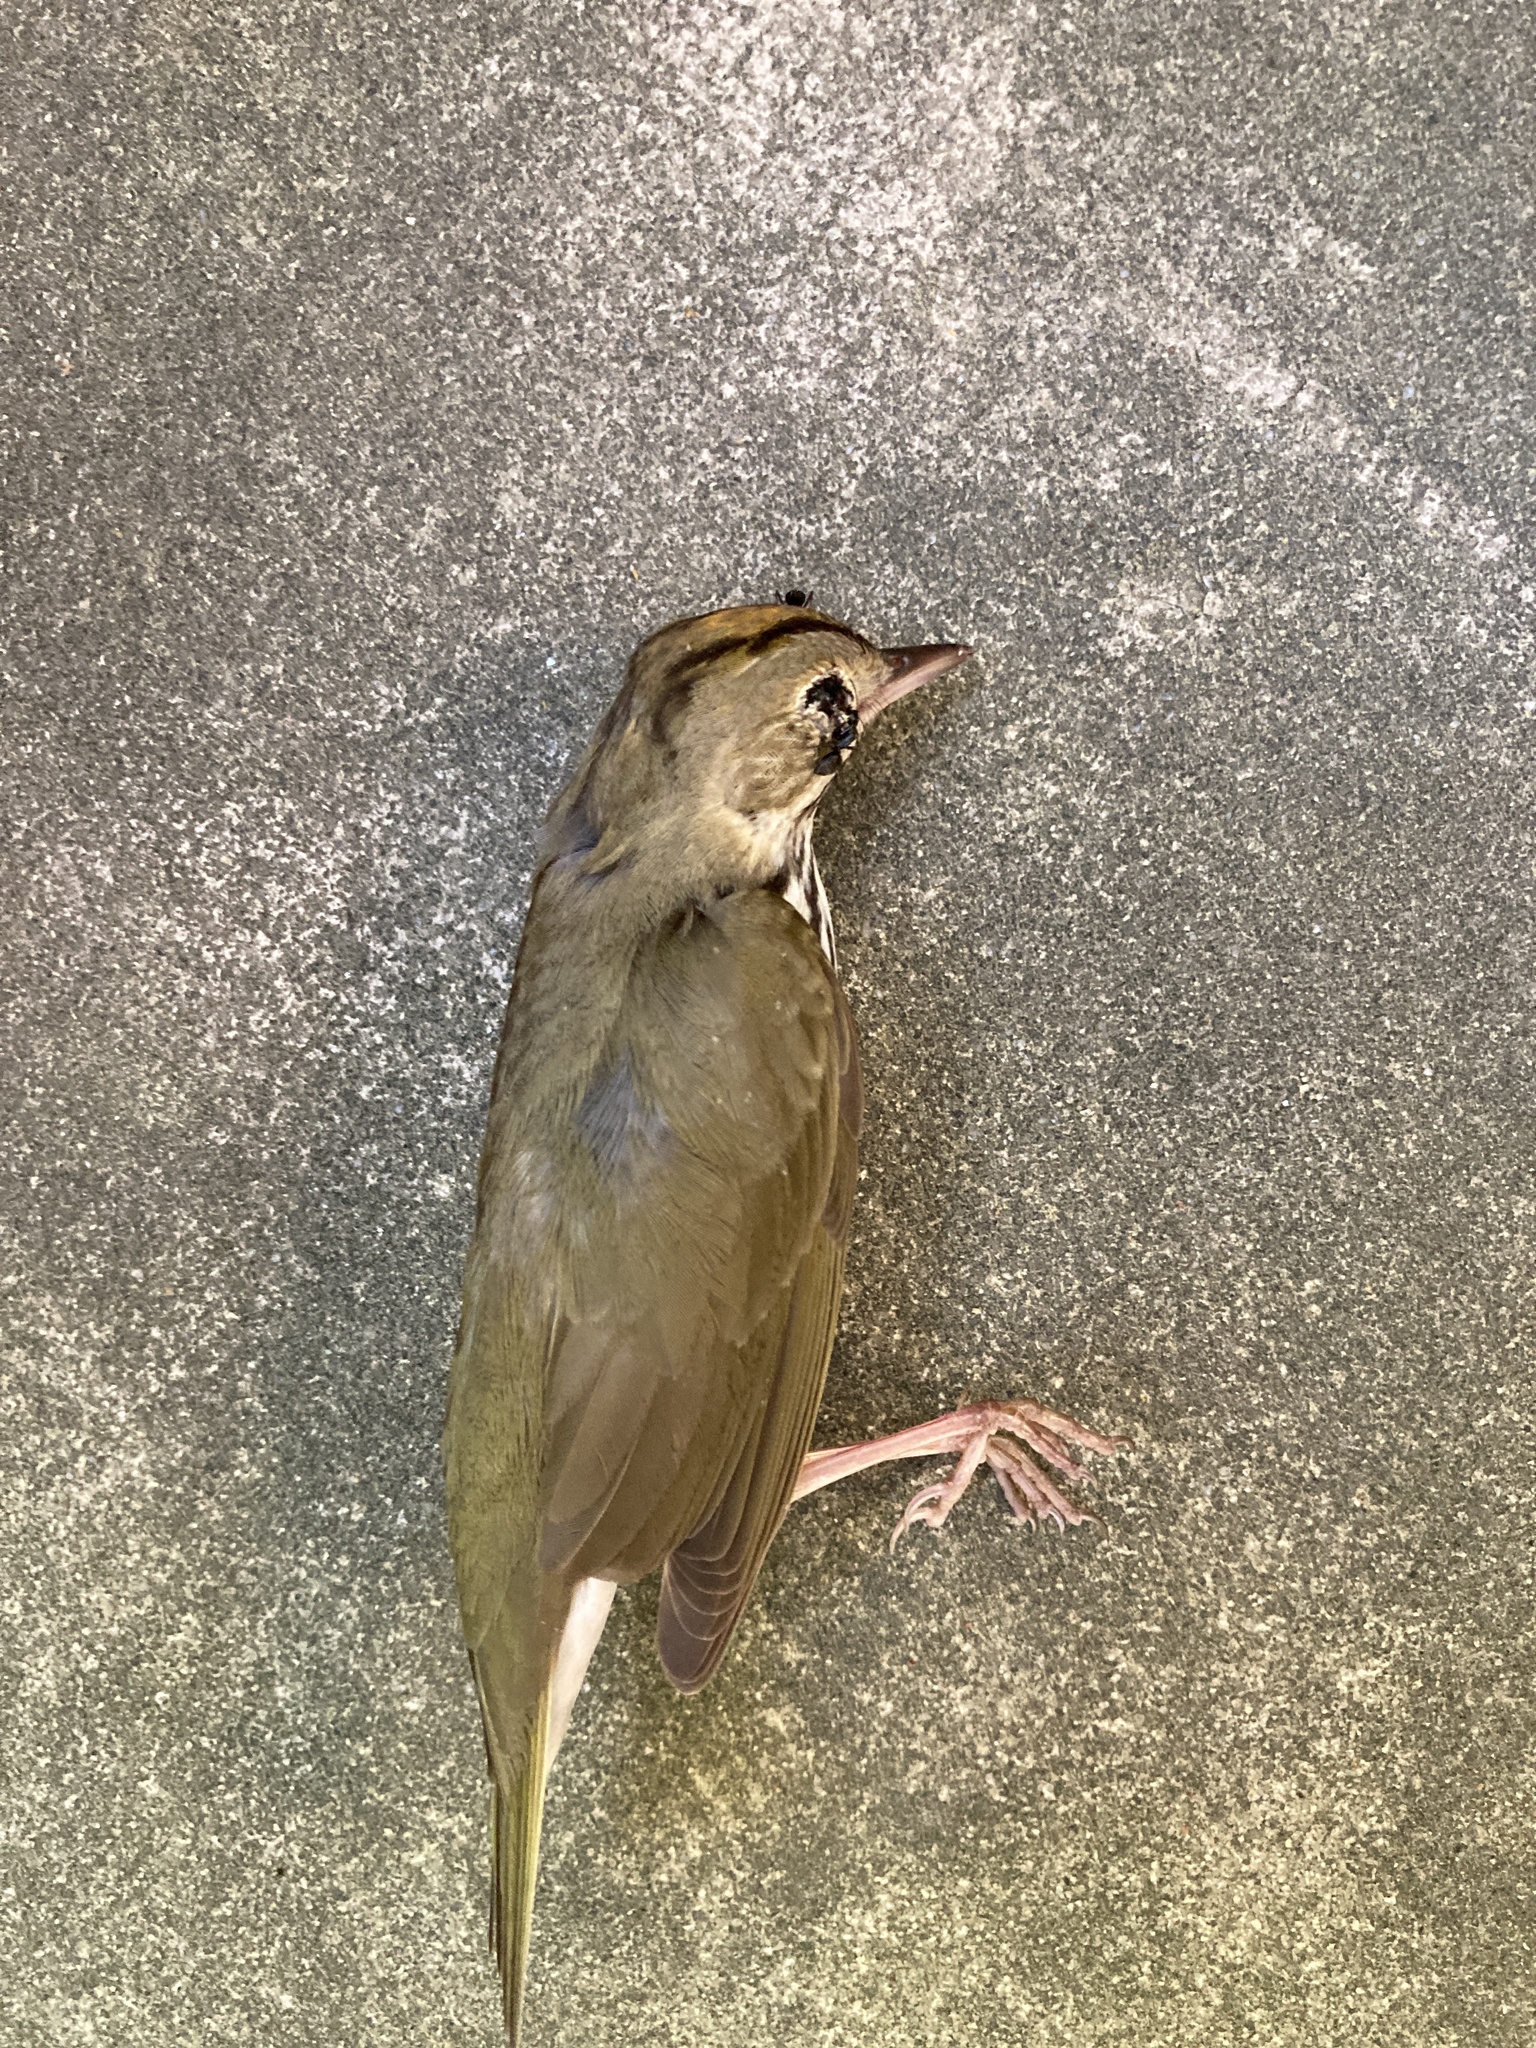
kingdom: Animalia
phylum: Chordata
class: Aves
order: Passeriformes
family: Parulidae
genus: Seiurus
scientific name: Seiurus aurocapilla
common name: Ovenbird
